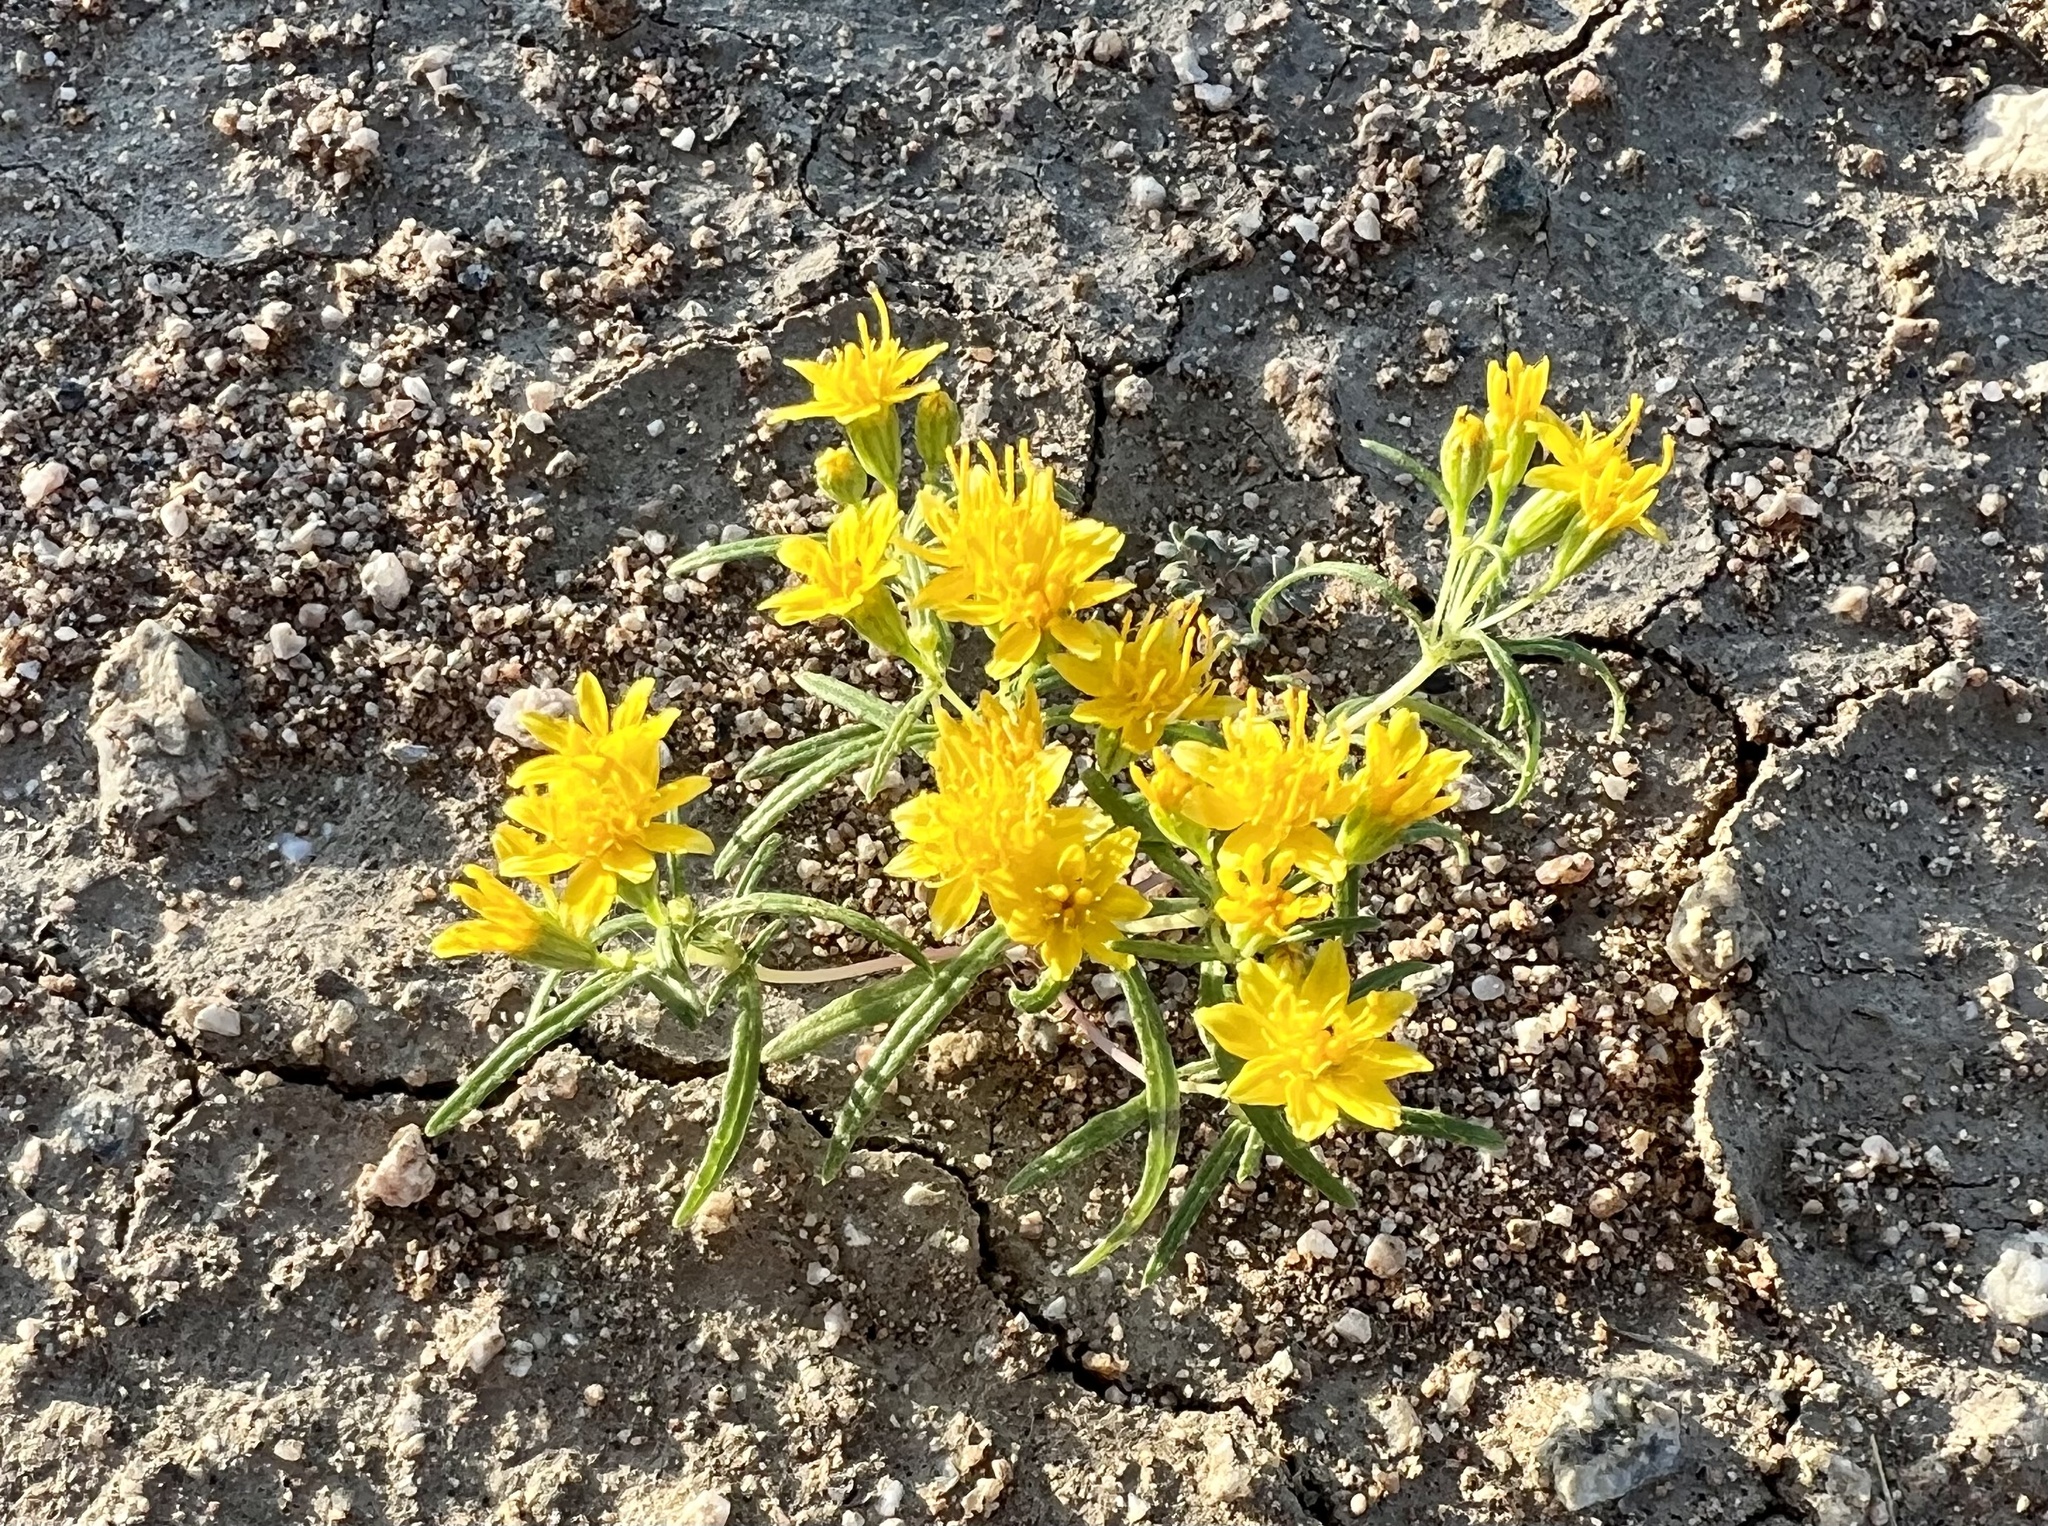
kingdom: Plantae
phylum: Tracheophyta
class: Magnoliopsida
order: Asterales
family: Asteraceae
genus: Pectis
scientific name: Pectis papposa
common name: Many-bristle chinchweed
